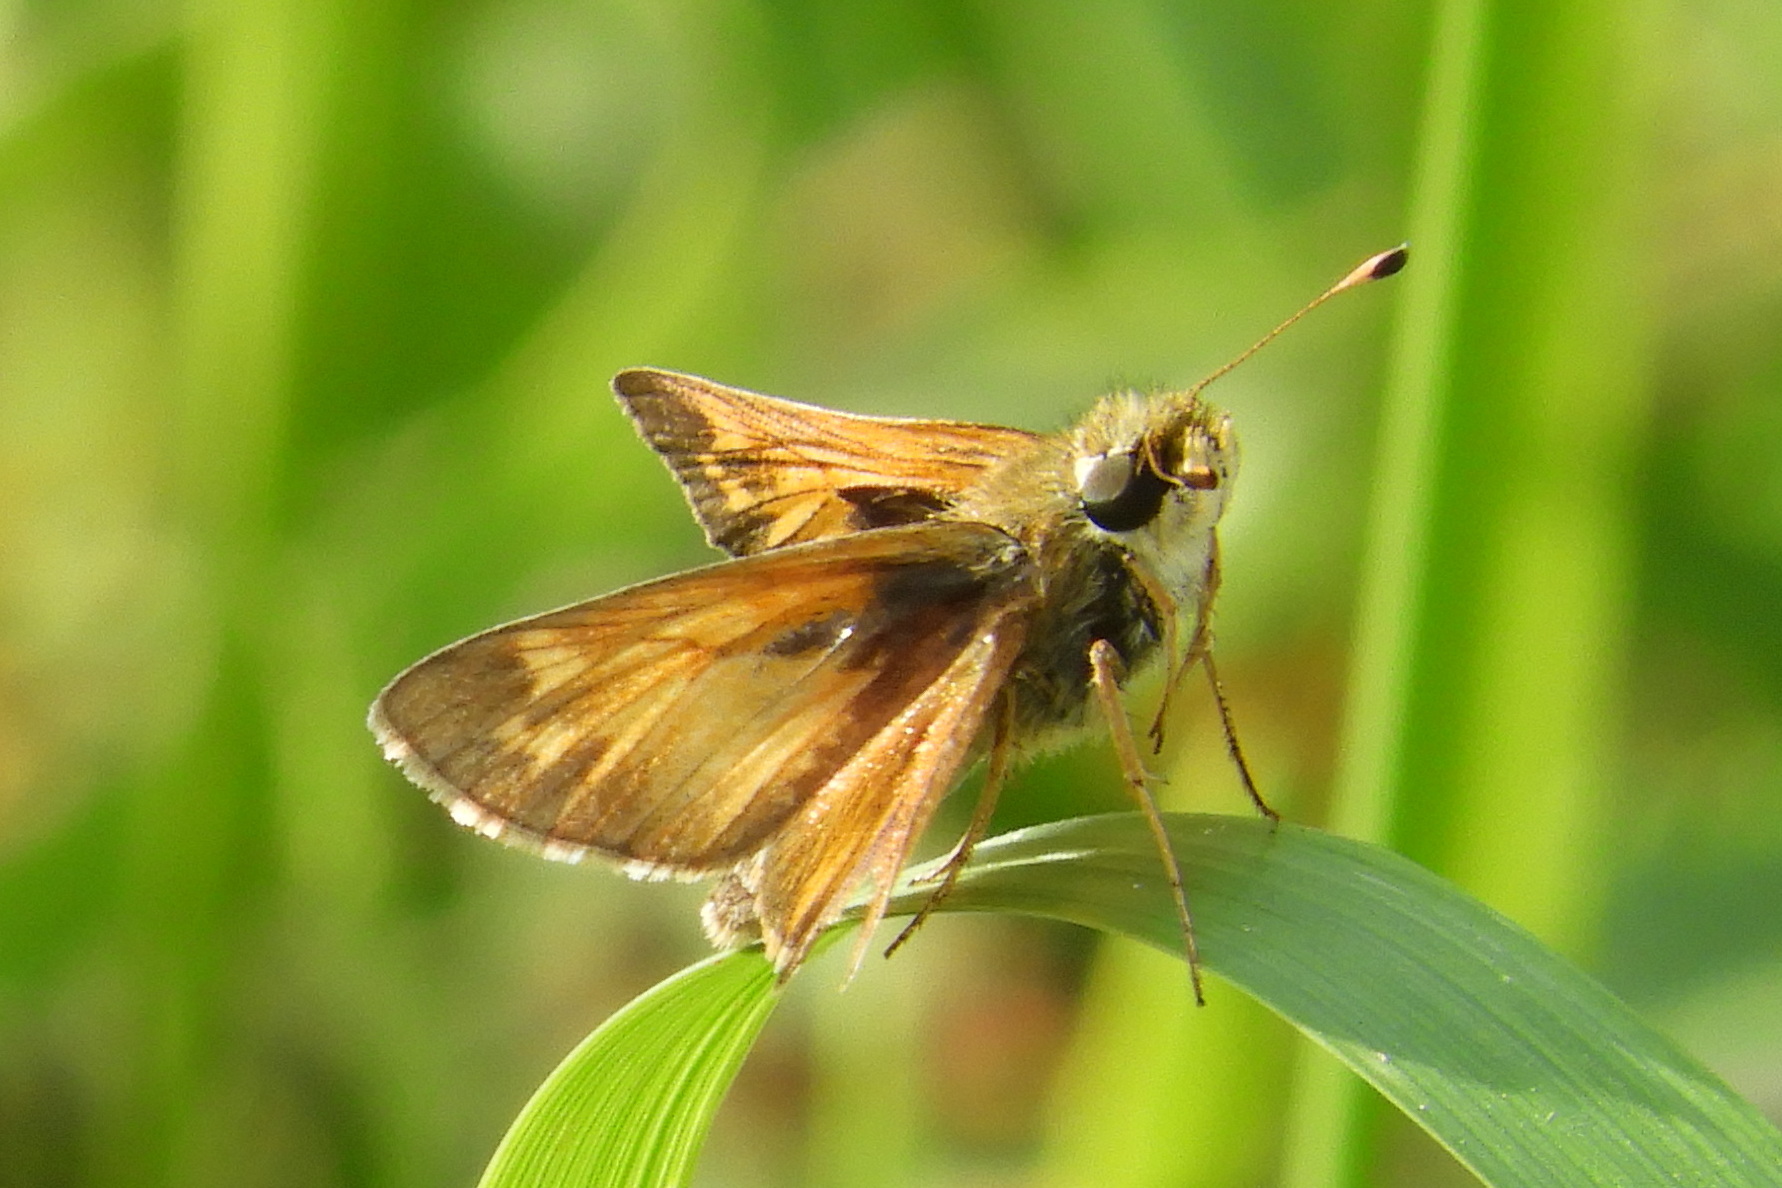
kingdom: Animalia
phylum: Arthropoda
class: Insecta
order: Lepidoptera
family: Hesperiidae
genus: Atalopedes
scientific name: Atalopedes
